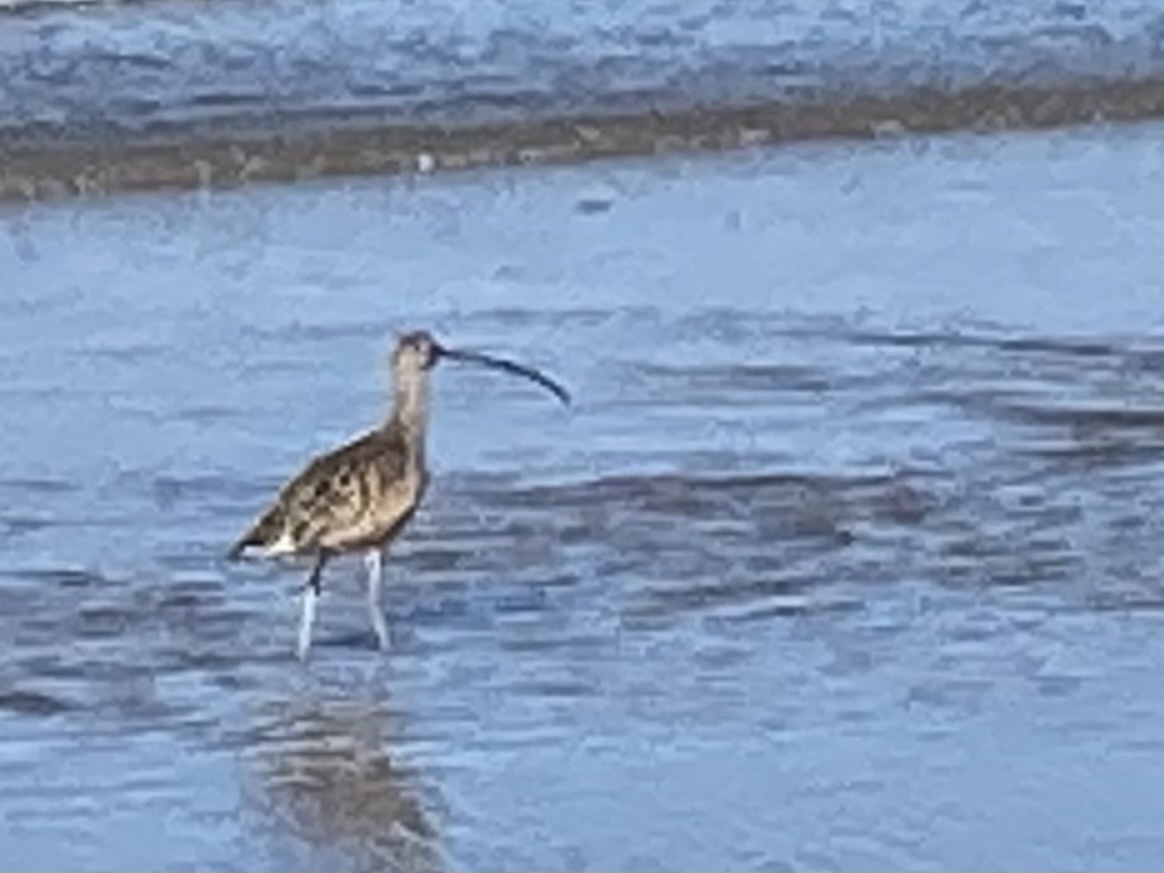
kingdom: Animalia
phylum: Chordata
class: Aves
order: Charadriiformes
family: Scolopacidae
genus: Numenius
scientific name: Numenius americanus
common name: Long-billed curlew
